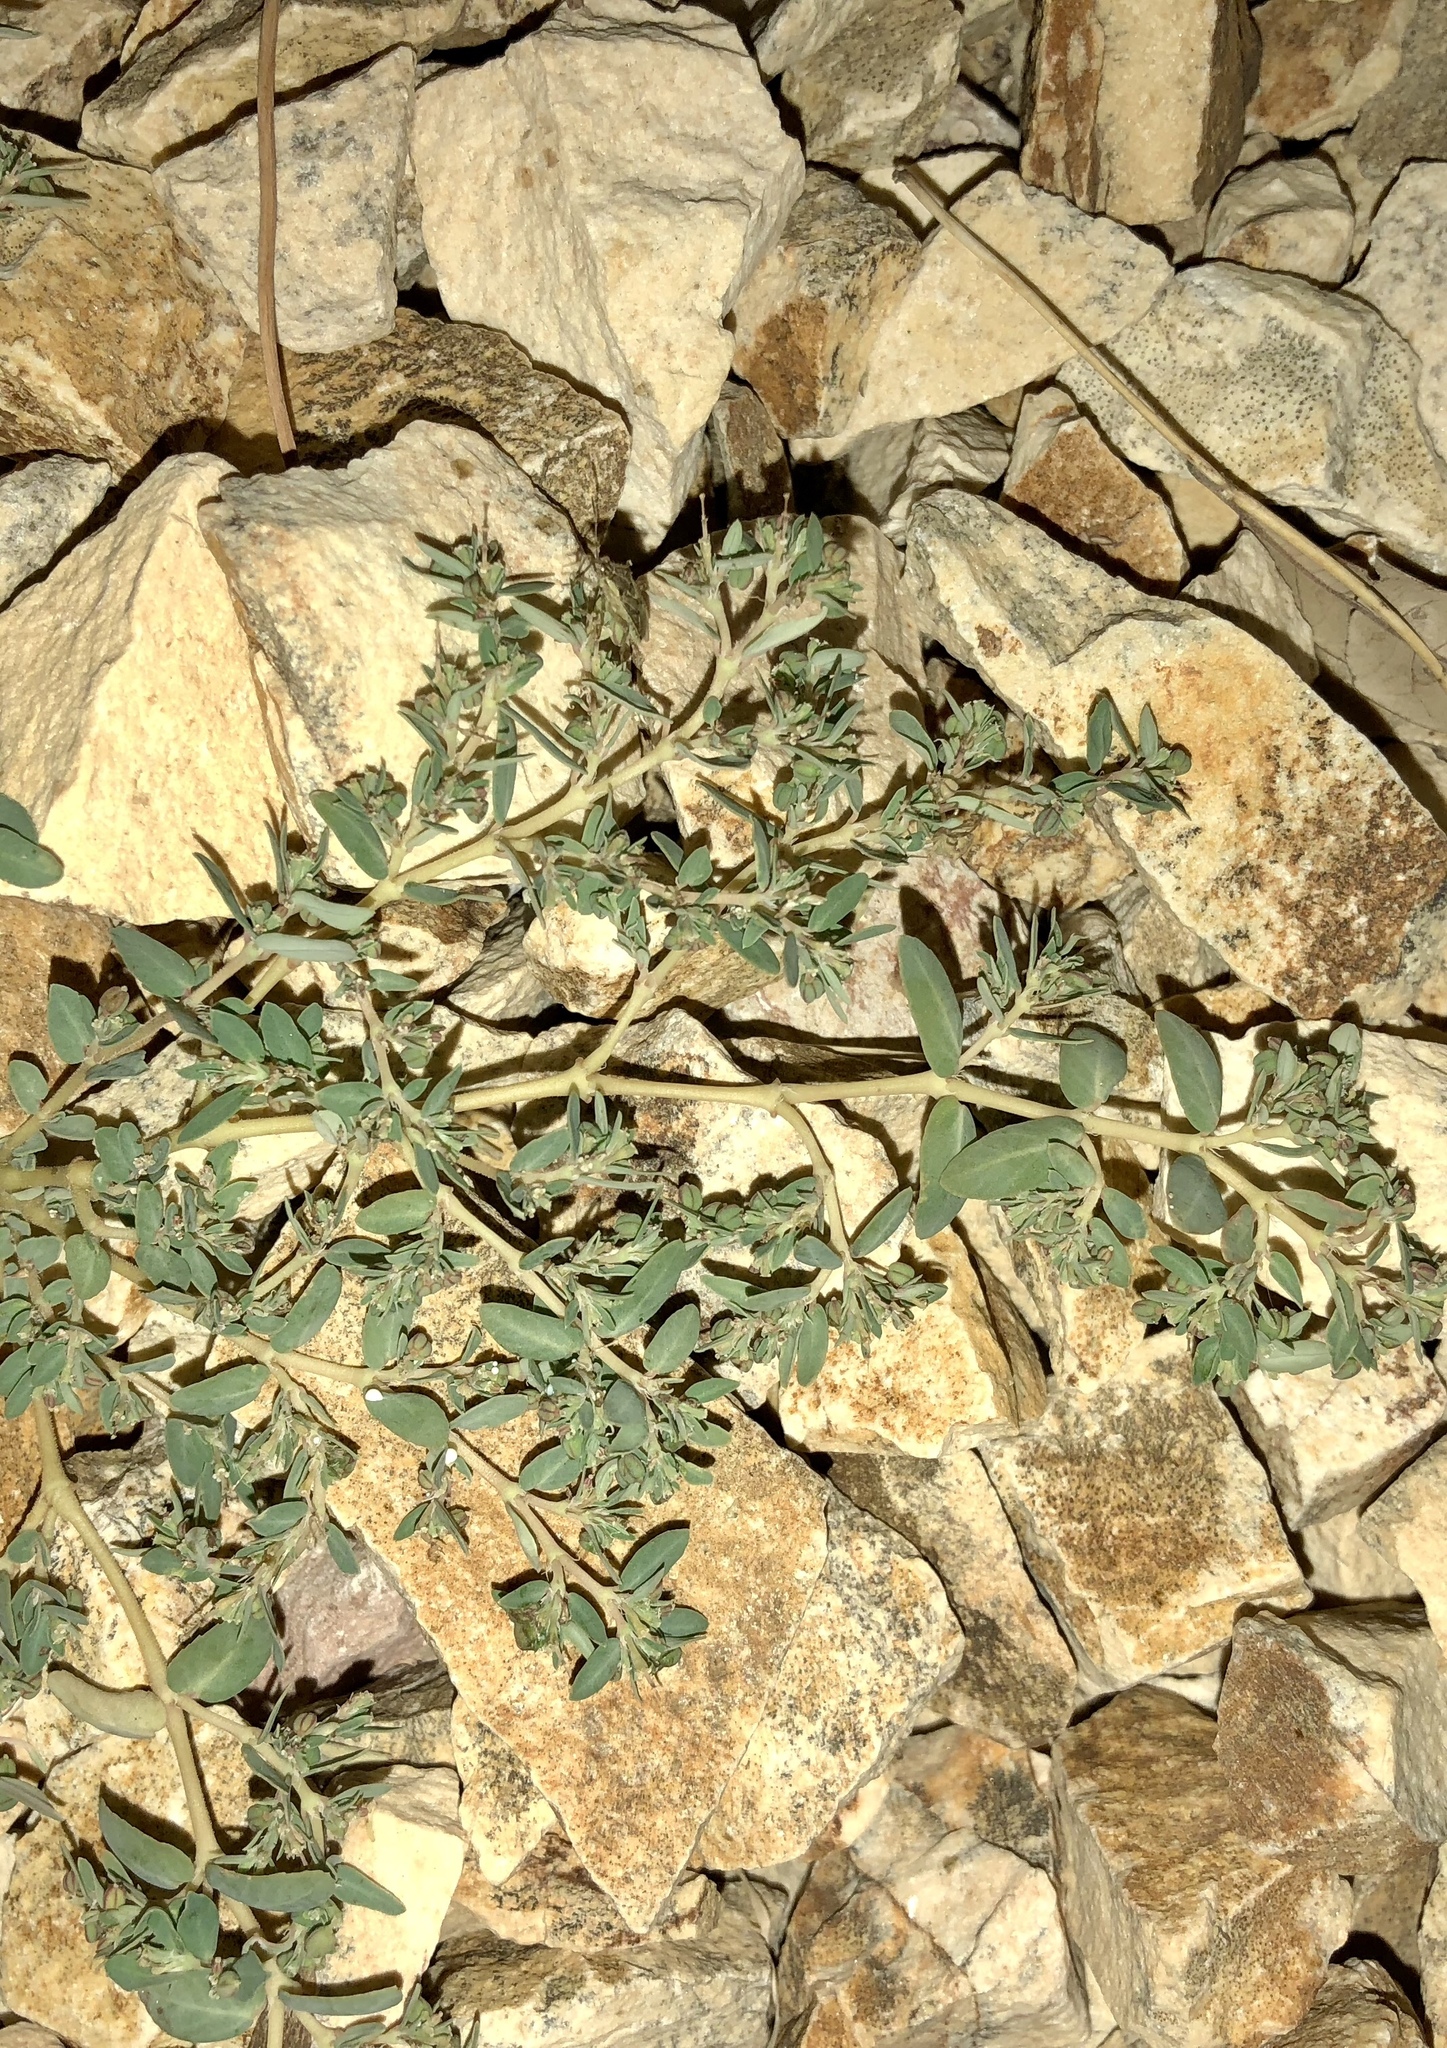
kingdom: Plantae
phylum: Tracheophyta
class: Magnoliopsida
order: Malpighiales
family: Euphorbiaceae
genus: Euphorbia
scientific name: Euphorbia abramsiana
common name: Abram's spurge
